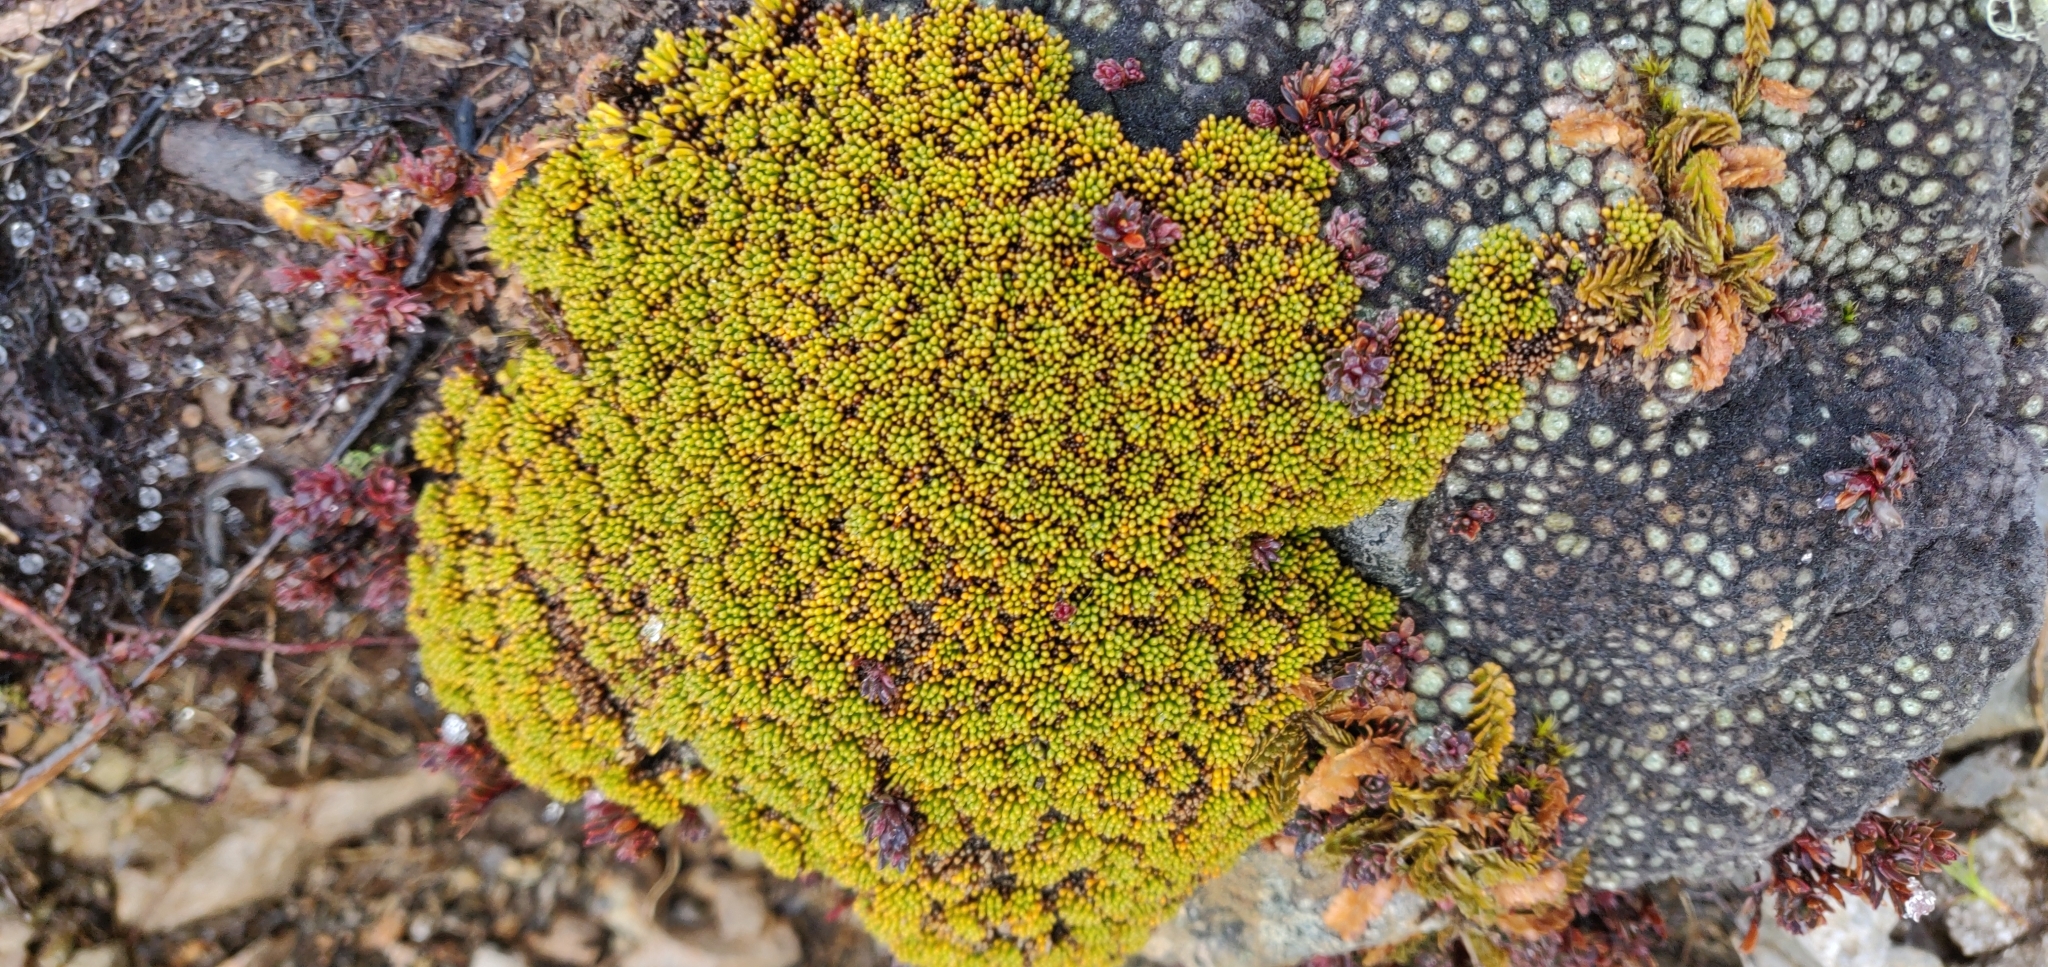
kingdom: Plantae
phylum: Tracheophyta
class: Magnoliopsida
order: Asterales
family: Stylidiaceae
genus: Phyllachne
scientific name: Phyllachne colensoi
